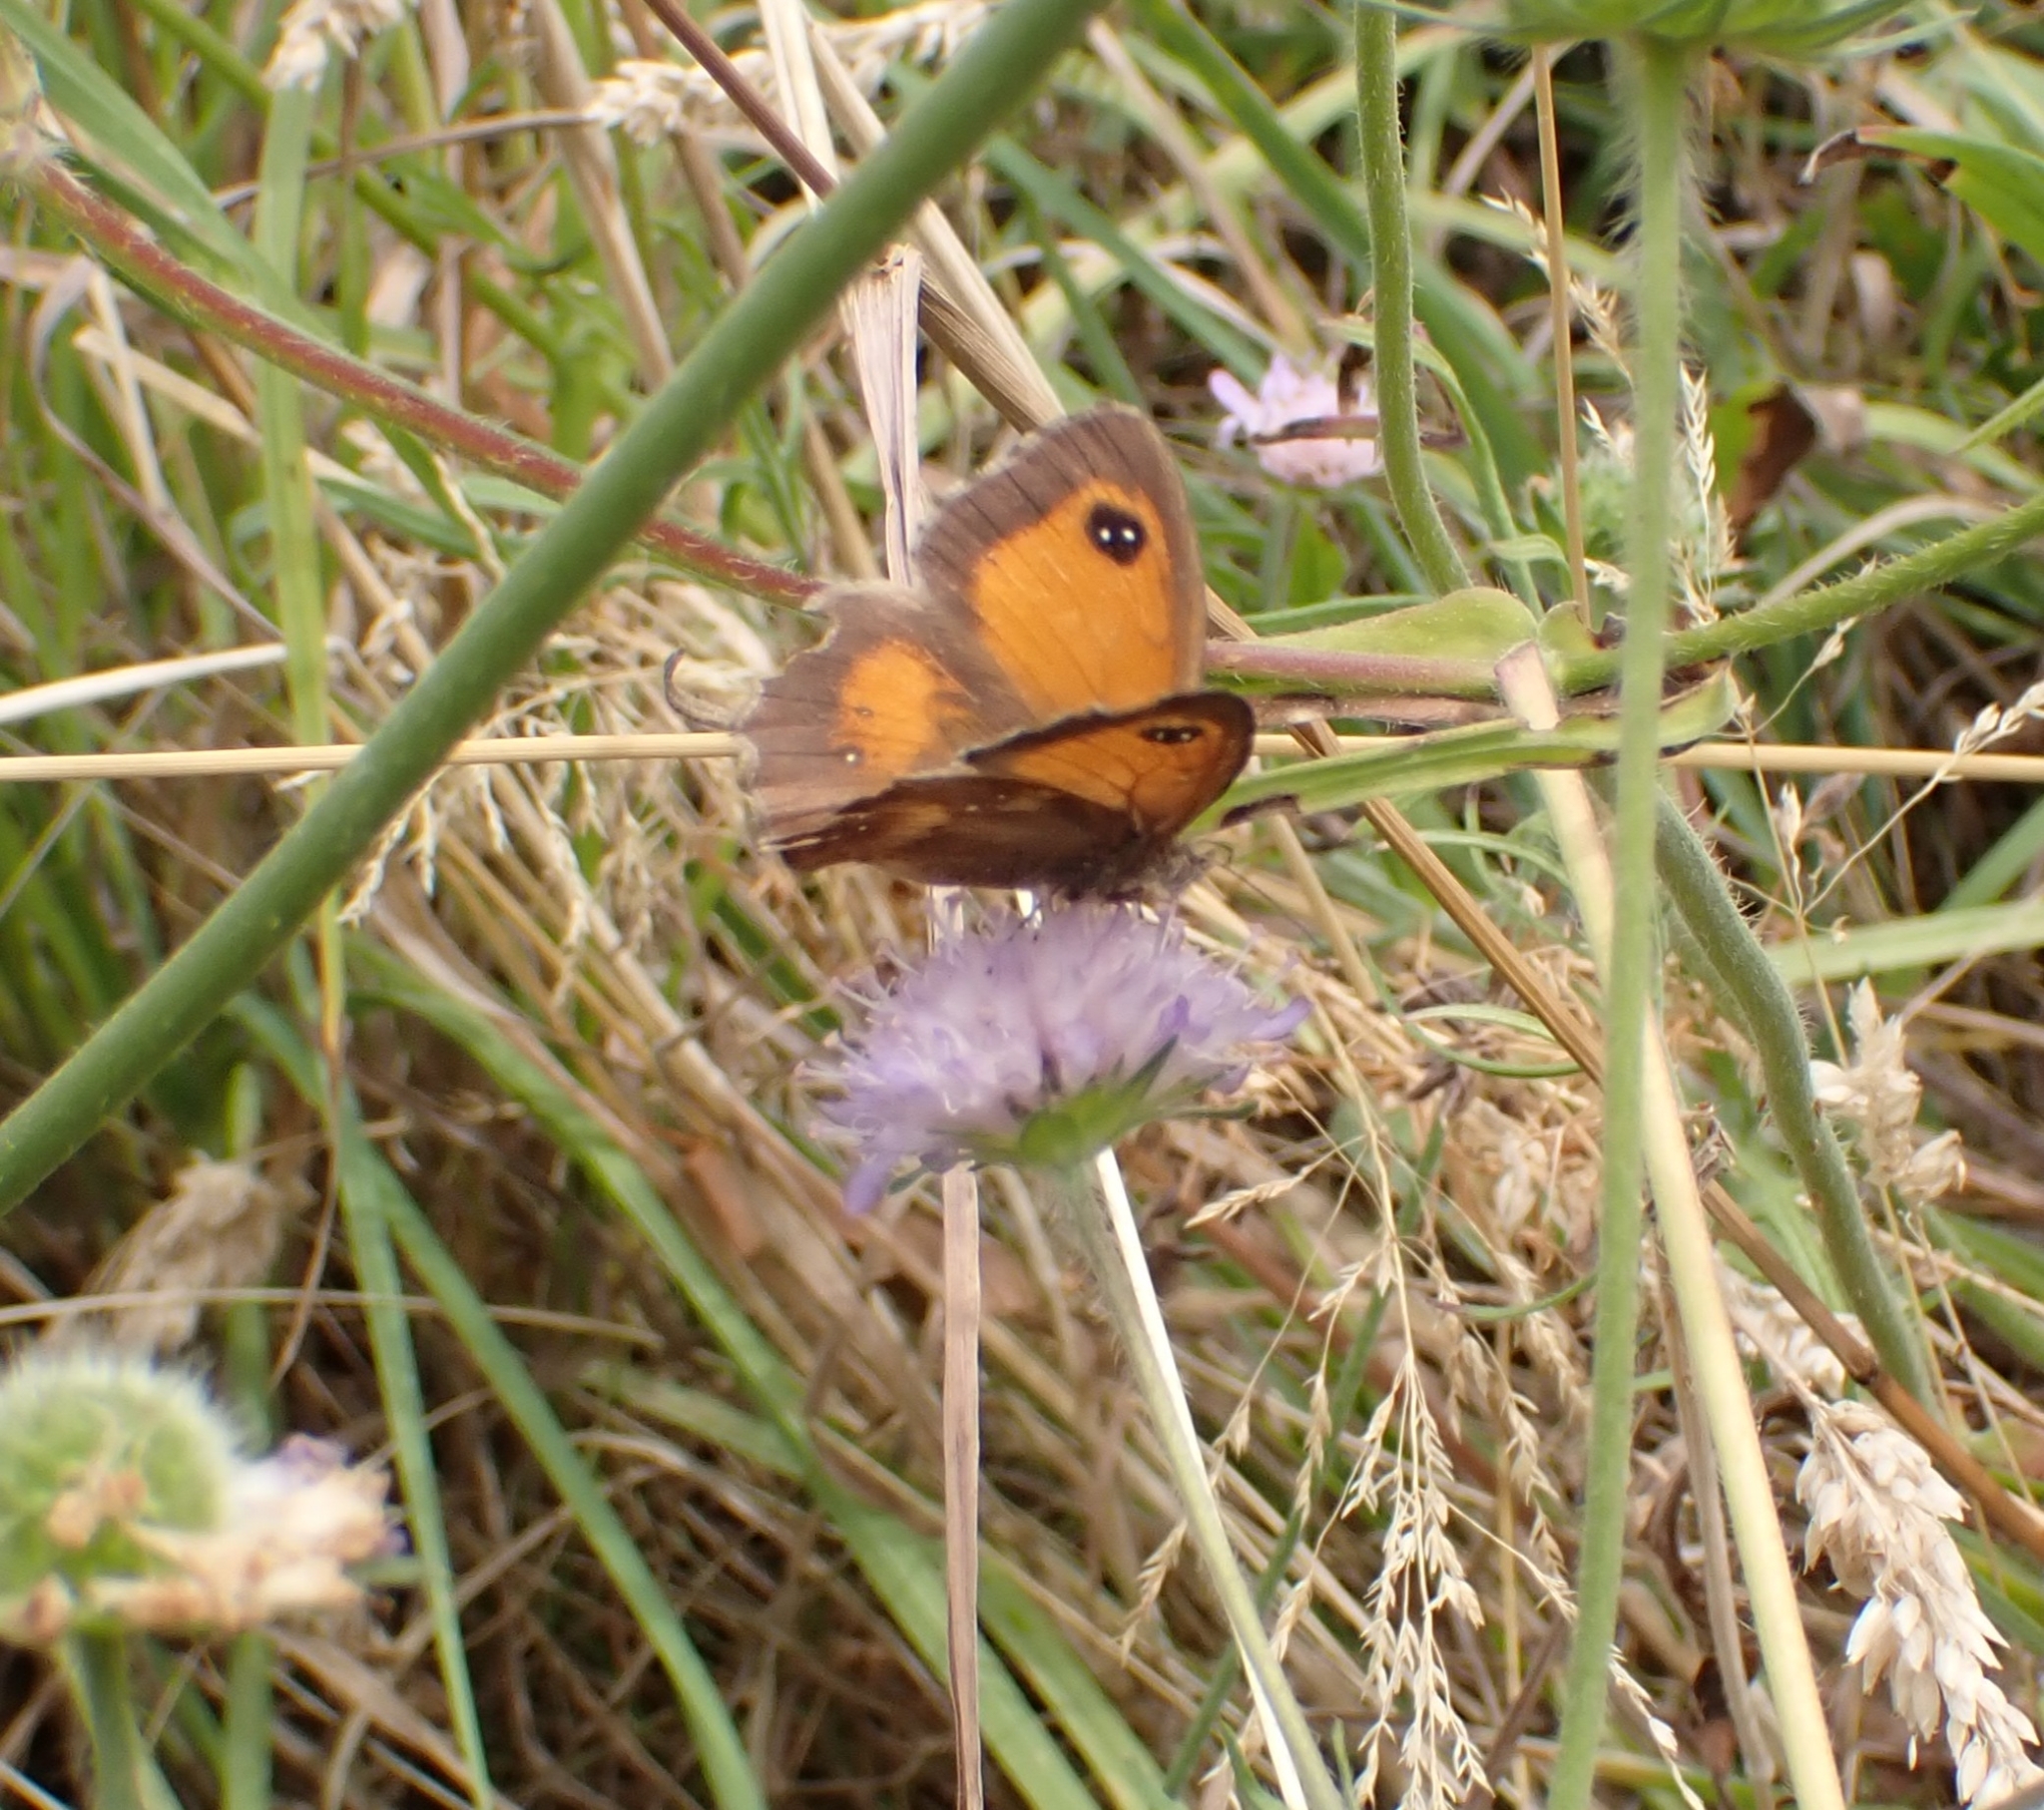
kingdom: Animalia
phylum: Arthropoda
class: Insecta
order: Lepidoptera
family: Nymphalidae
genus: Pyronia
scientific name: Pyronia tithonus
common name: Gatekeeper
